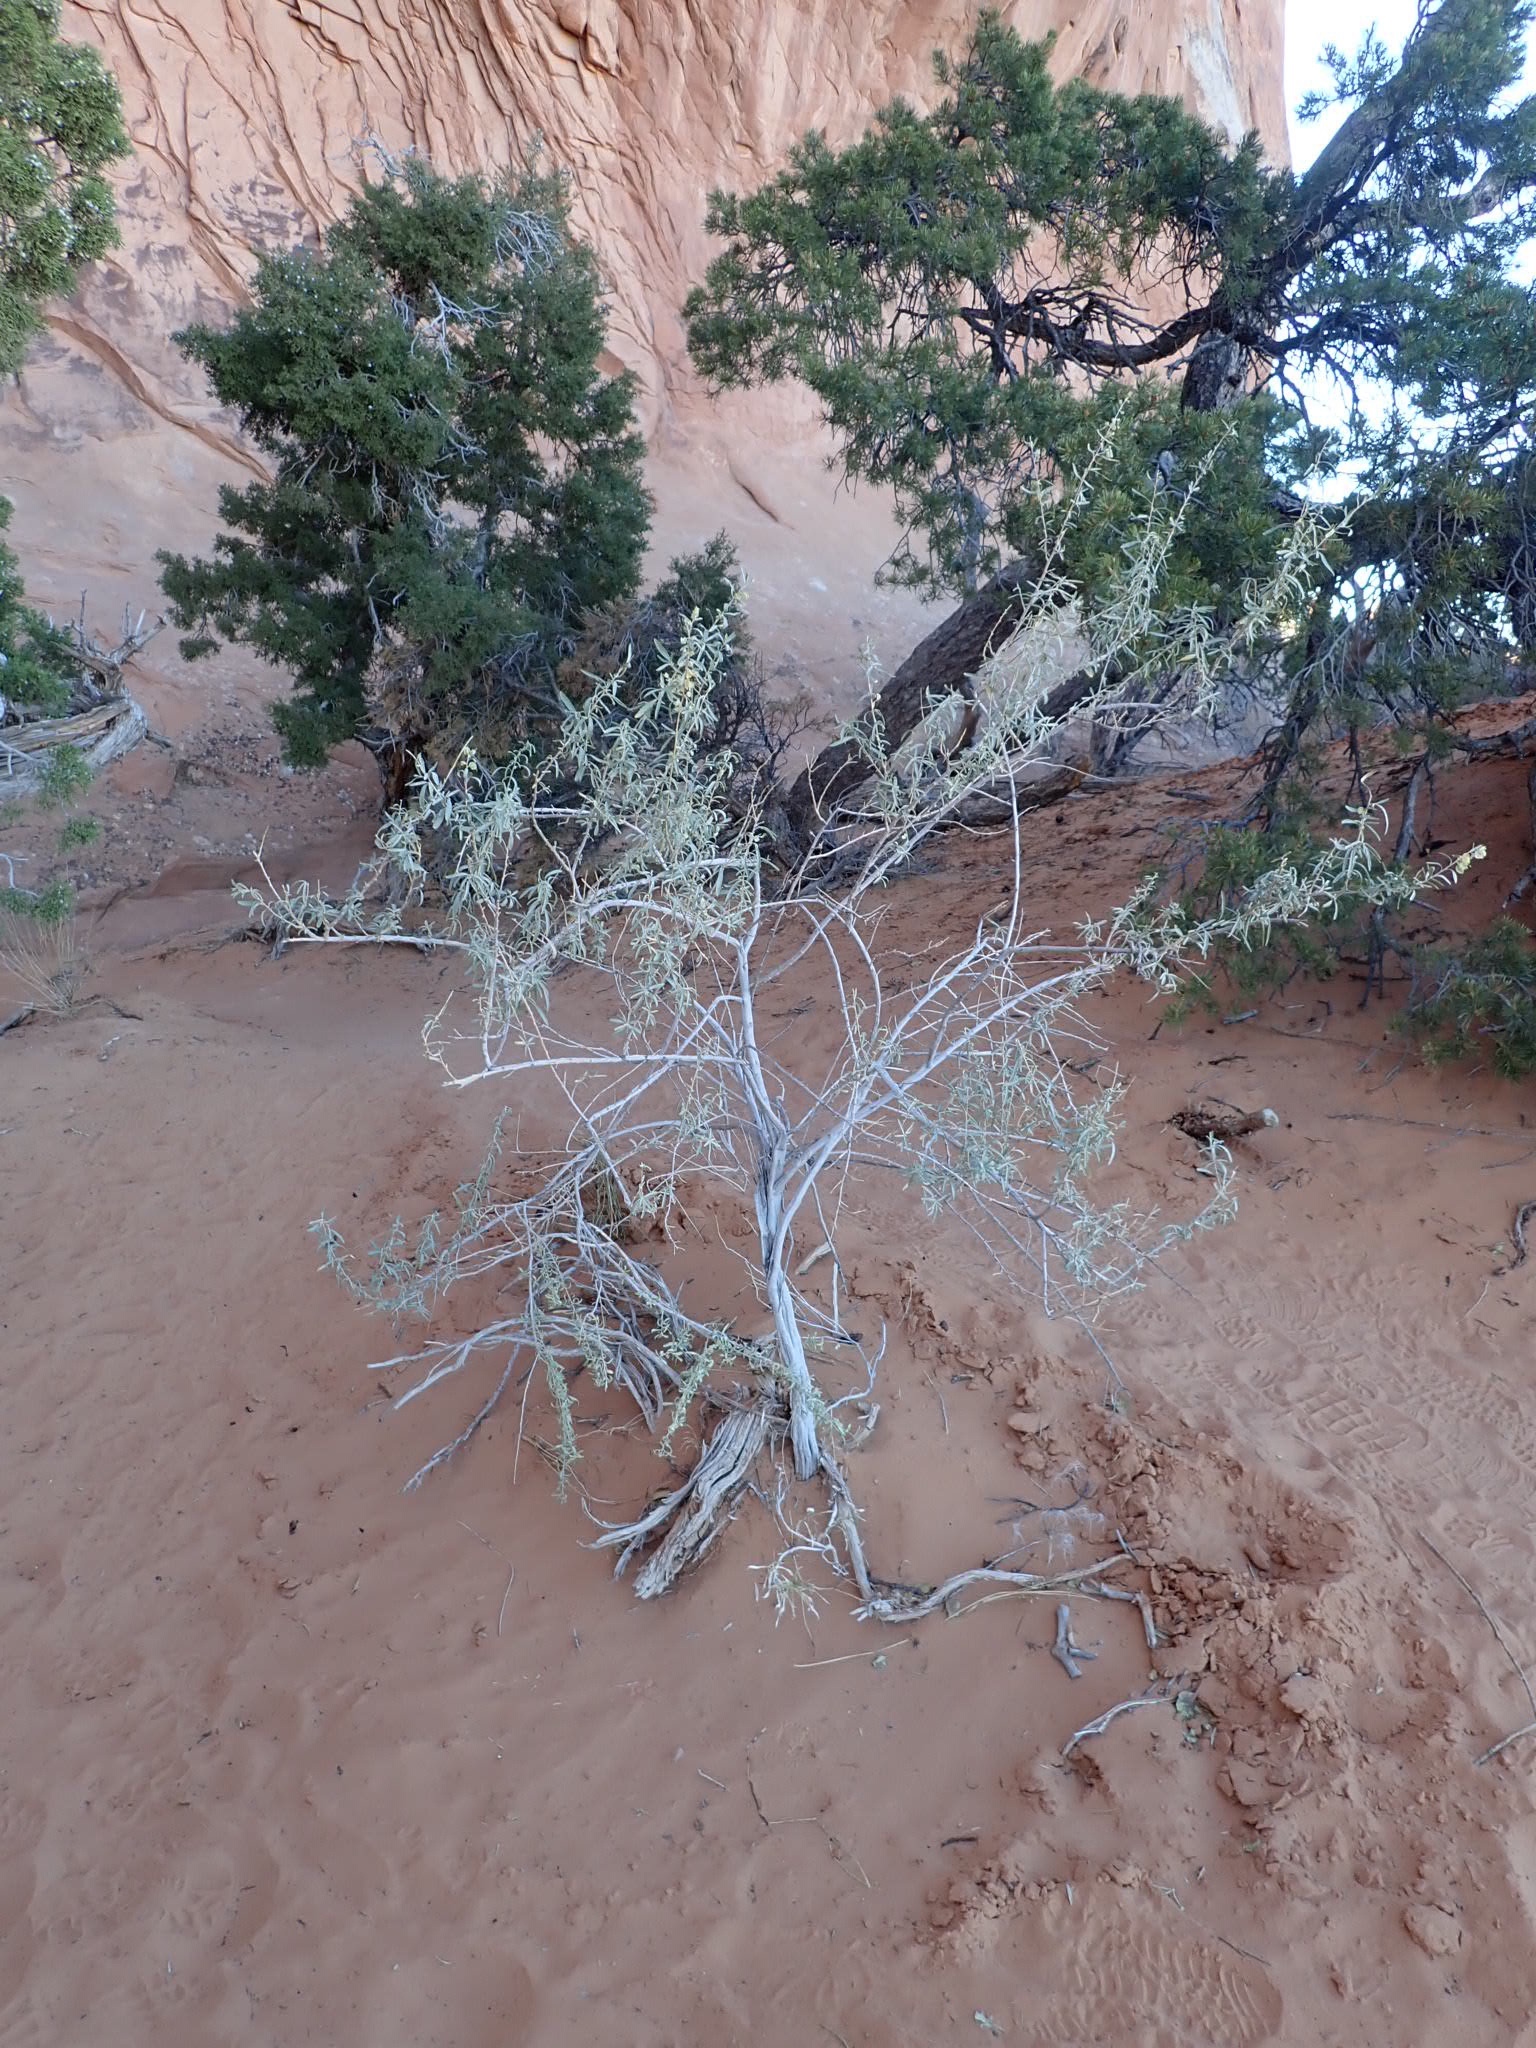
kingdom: Plantae
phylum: Tracheophyta
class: Magnoliopsida
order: Caryophyllales
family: Amaranthaceae
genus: Atriplex
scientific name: Atriplex canescens
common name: Four-wing saltbush
